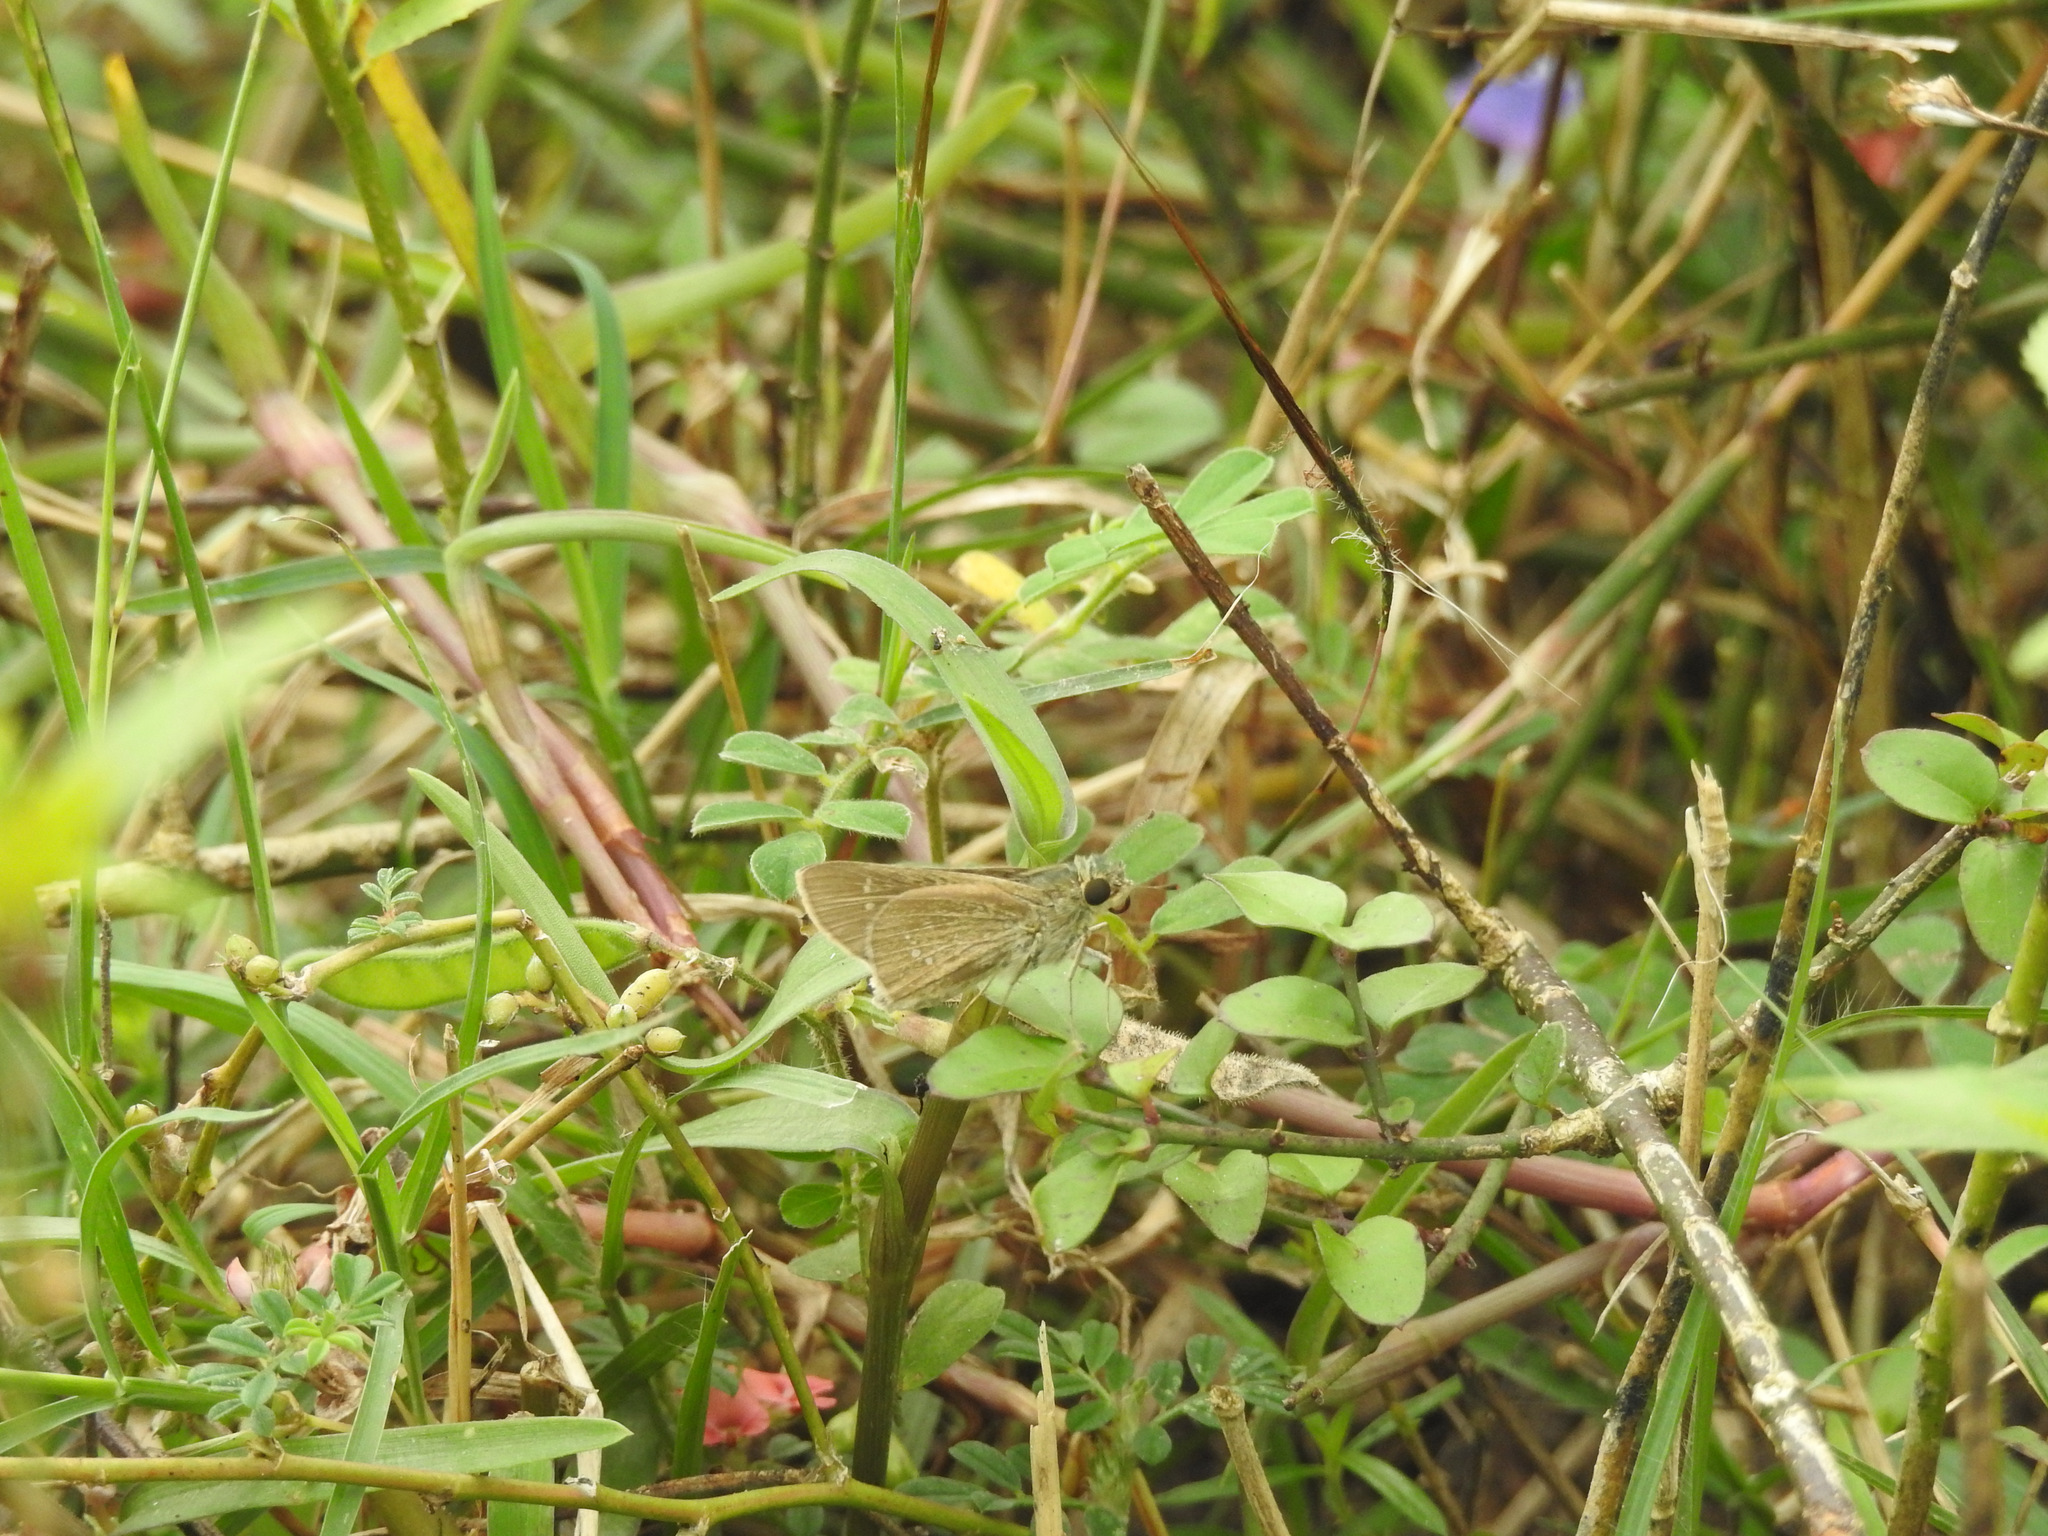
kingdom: Animalia
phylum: Arthropoda
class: Insecta
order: Lepidoptera
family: Hesperiidae
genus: Parnara
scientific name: Parnara naso
